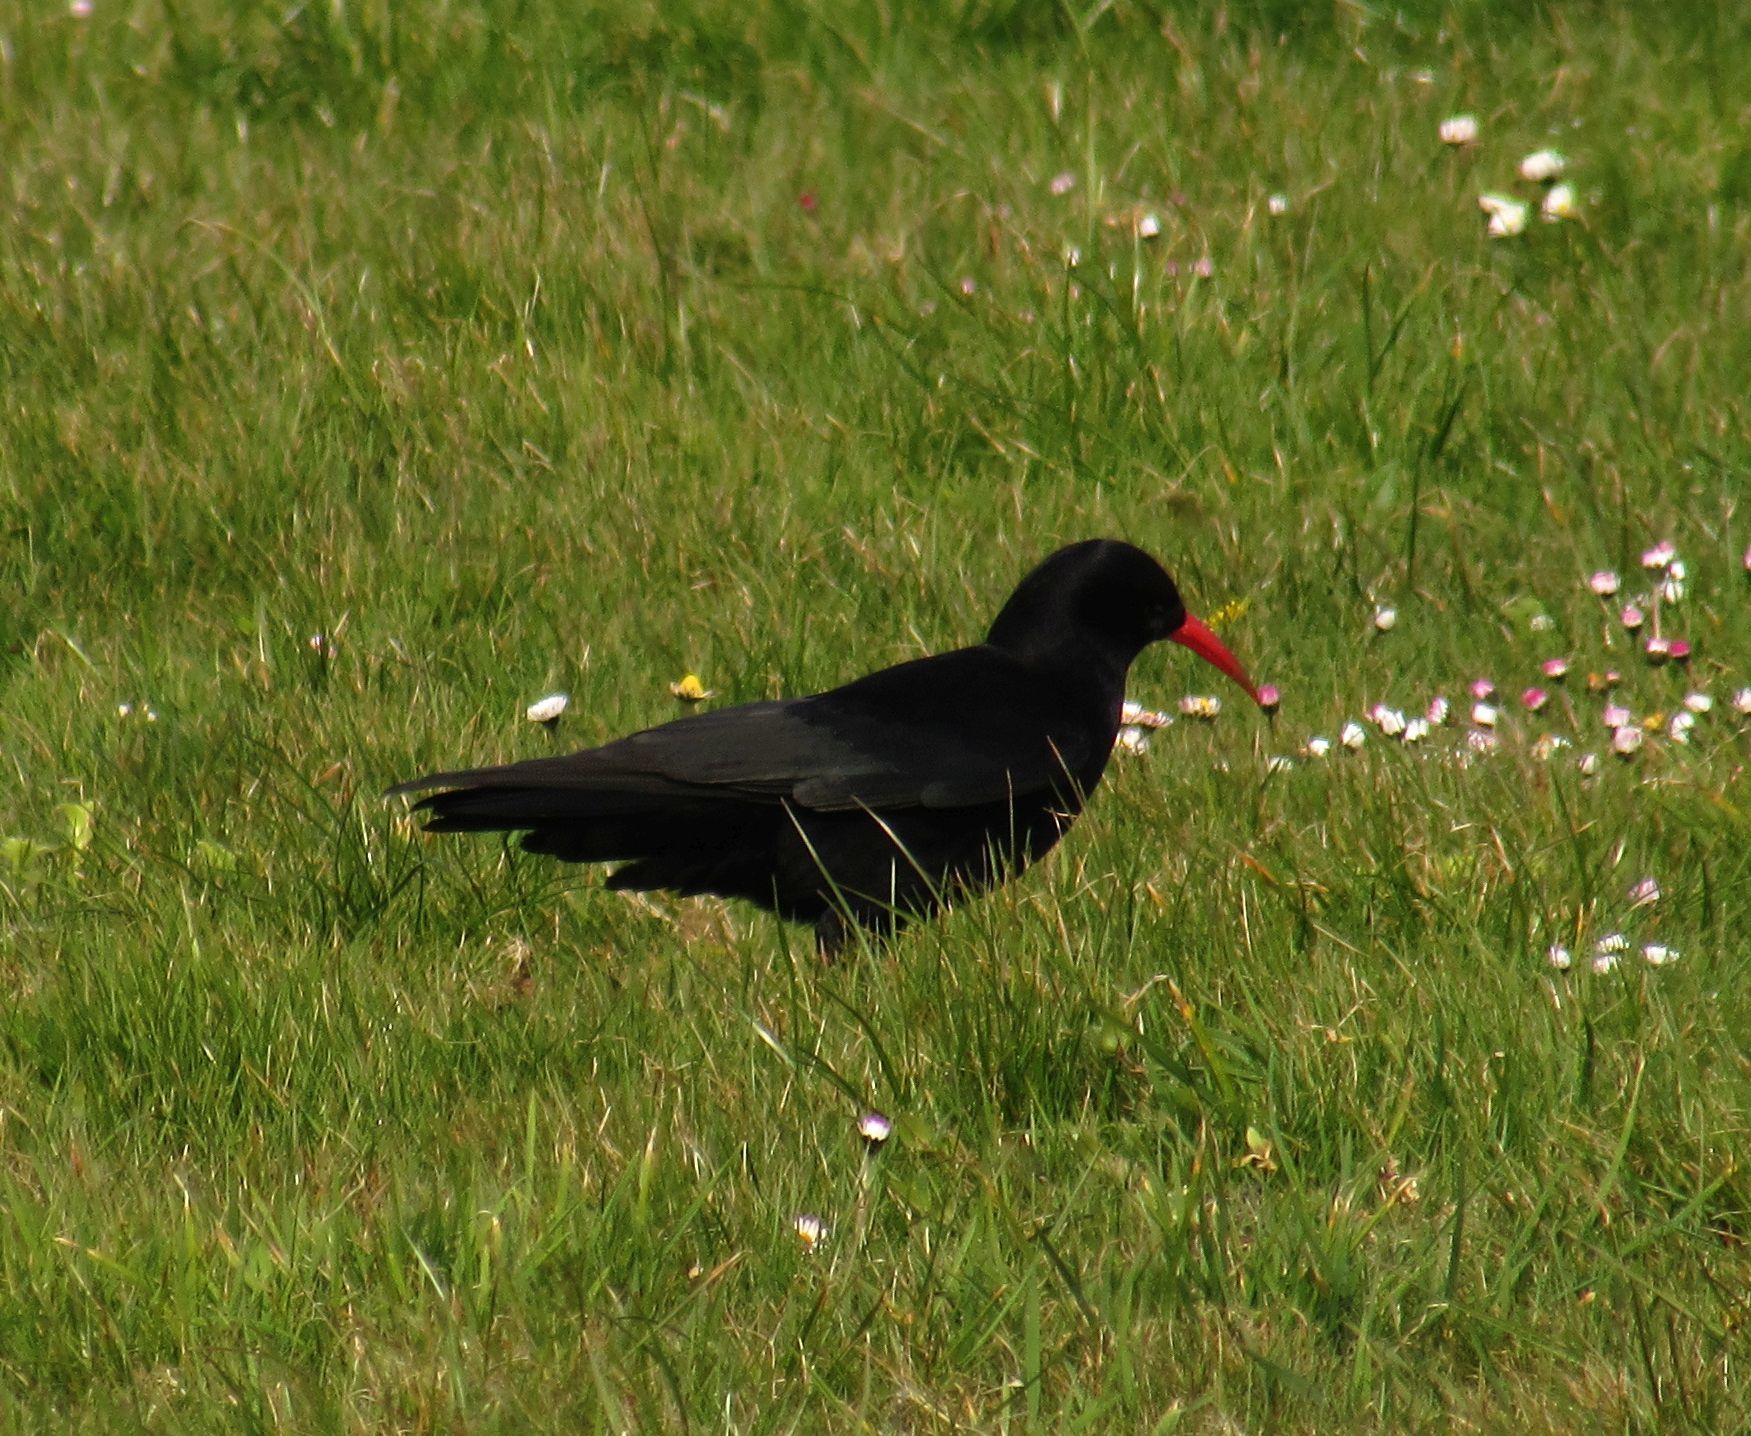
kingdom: Animalia
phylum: Chordata
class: Aves
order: Passeriformes
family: Corvidae
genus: Pyrrhocorax
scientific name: Pyrrhocorax pyrrhocorax
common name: Red-billed chough
